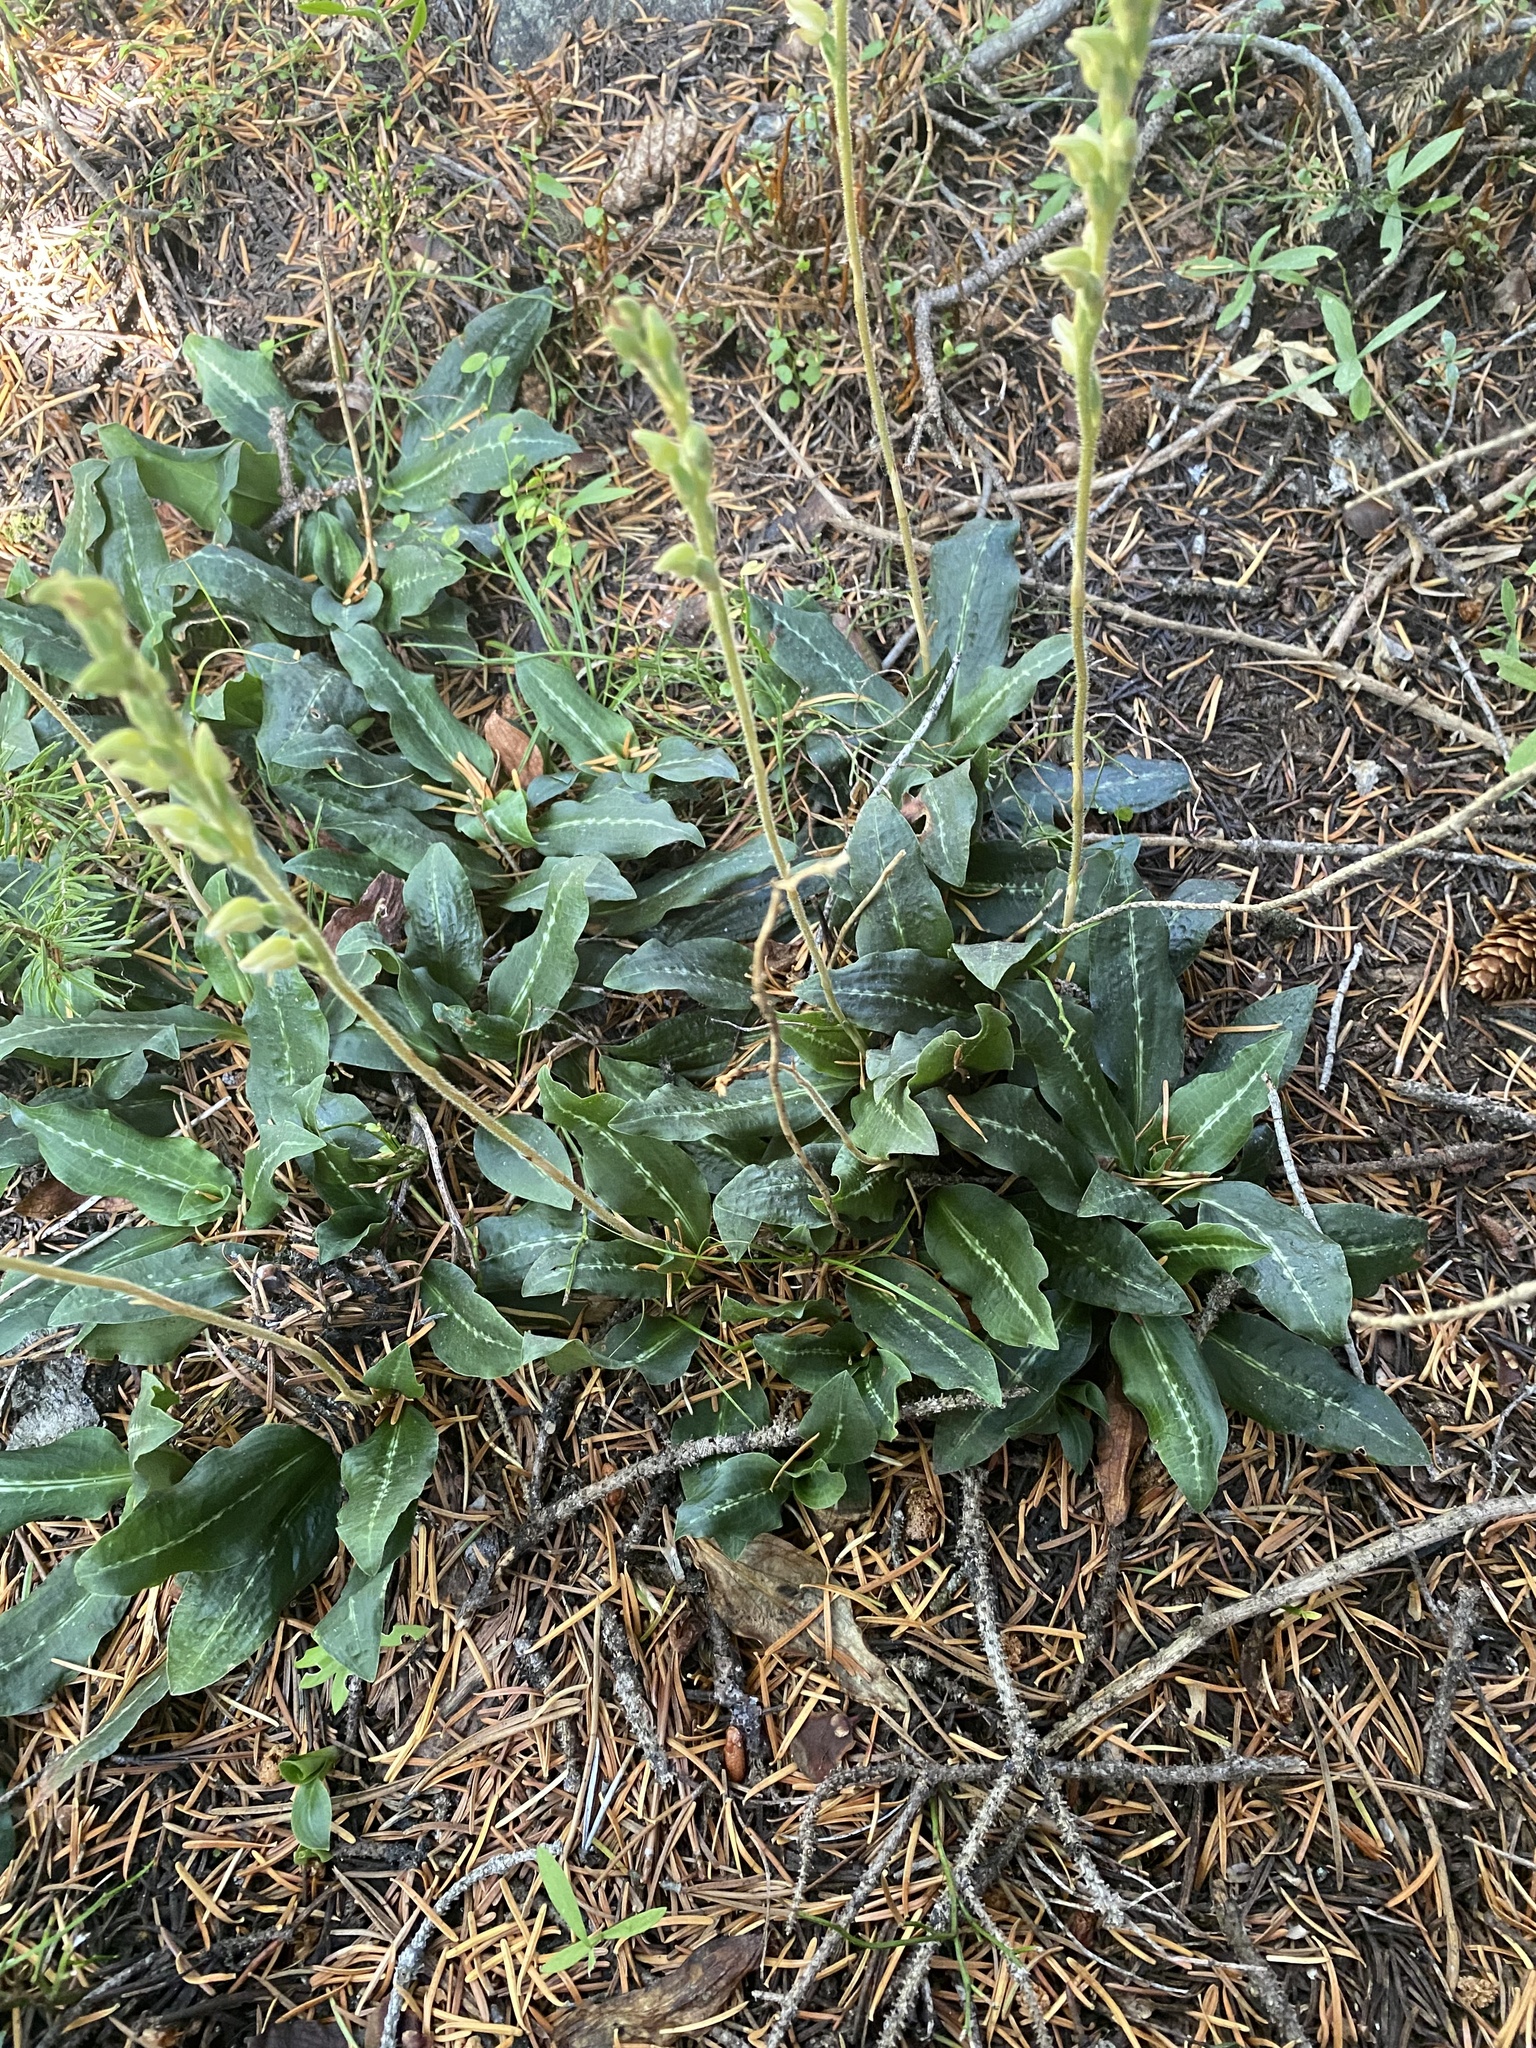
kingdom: Plantae
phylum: Tracheophyta
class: Liliopsida
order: Asparagales
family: Orchidaceae
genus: Goodyera
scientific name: Goodyera oblongifolia
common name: Giant rattlesnake-plantain
